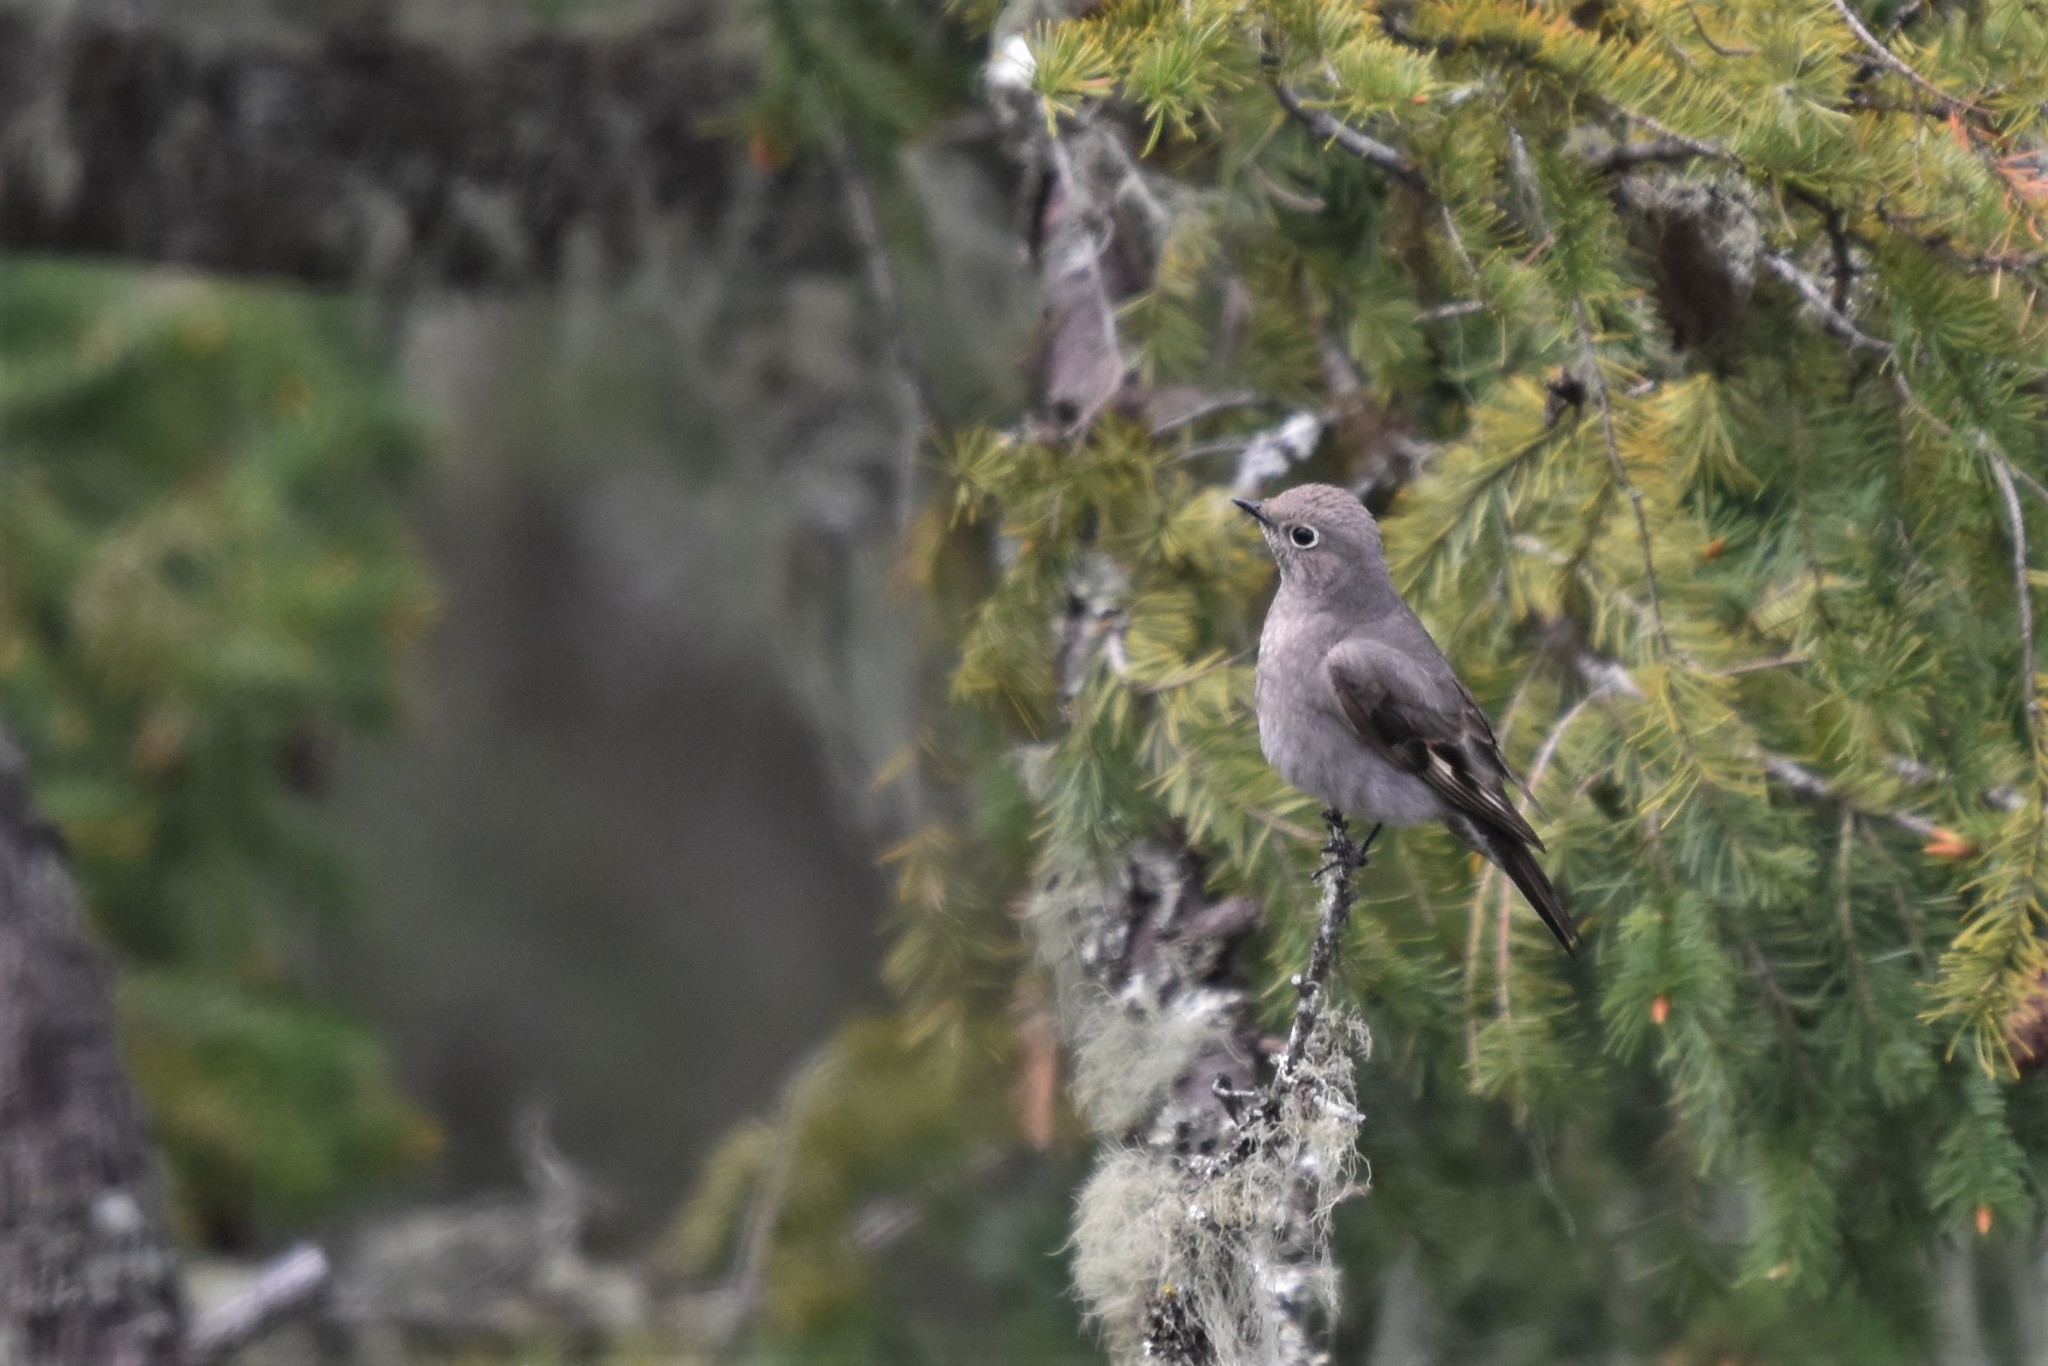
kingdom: Animalia
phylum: Chordata
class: Aves
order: Passeriformes
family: Turdidae
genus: Myadestes
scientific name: Myadestes townsendi
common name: Townsend's solitaire
